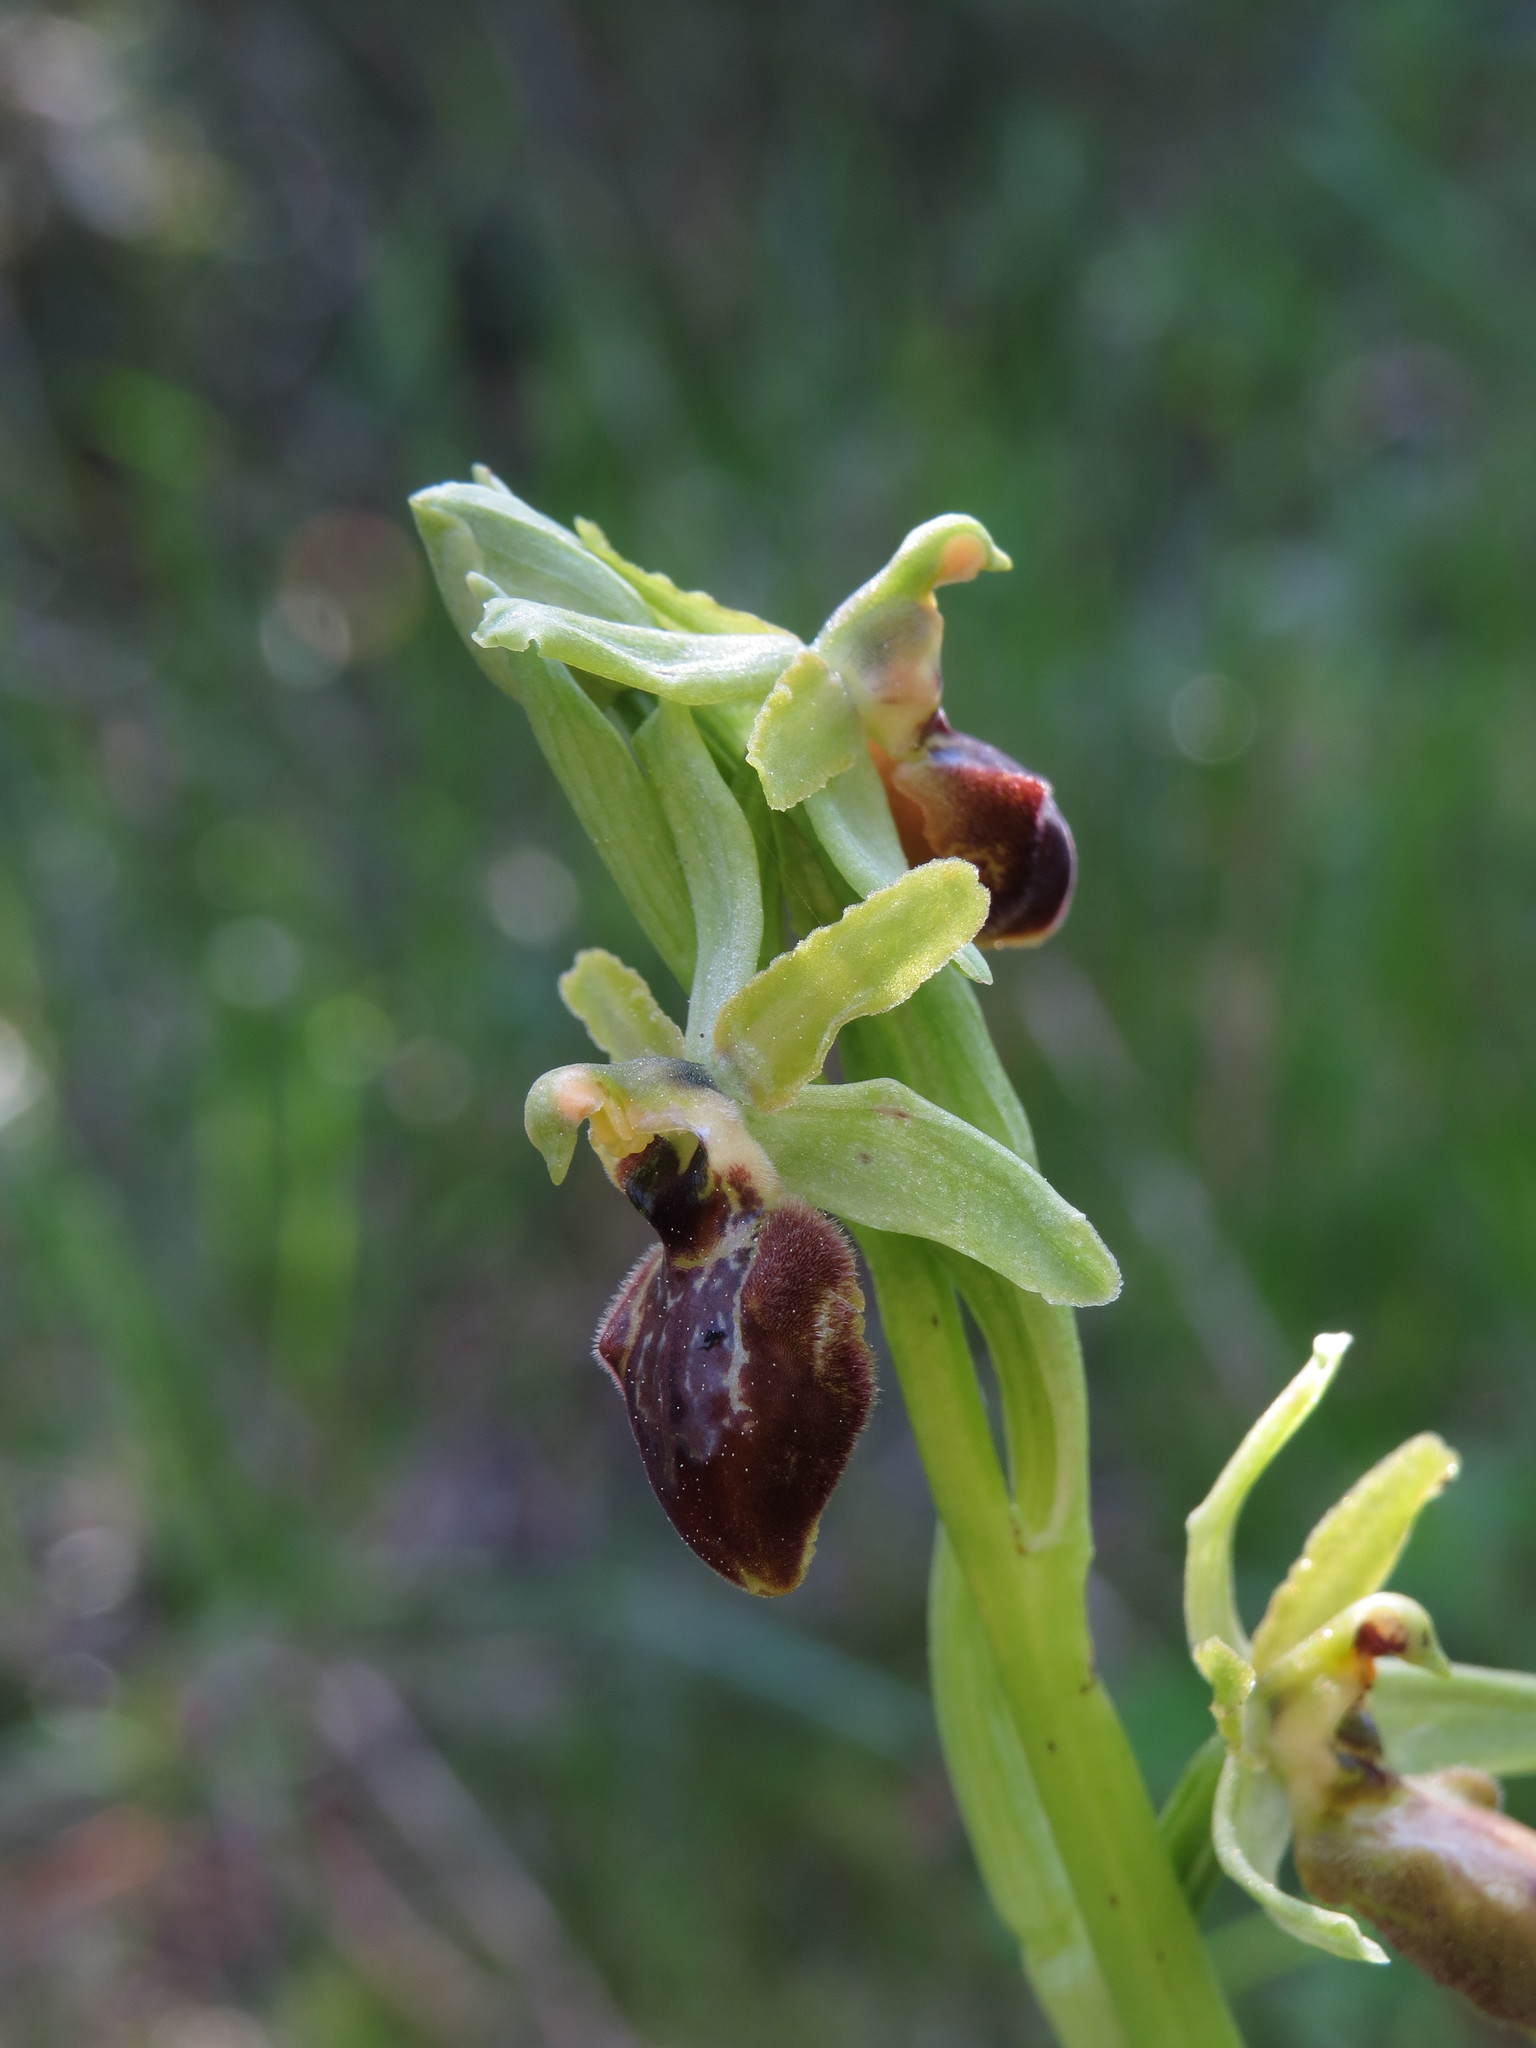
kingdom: Plantae
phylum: Tracheophyta
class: Liliopsida
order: Asparagales
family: Orchidaceae
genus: Ophrys
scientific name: Ophrys sphegodes
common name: Early spider-orchid
